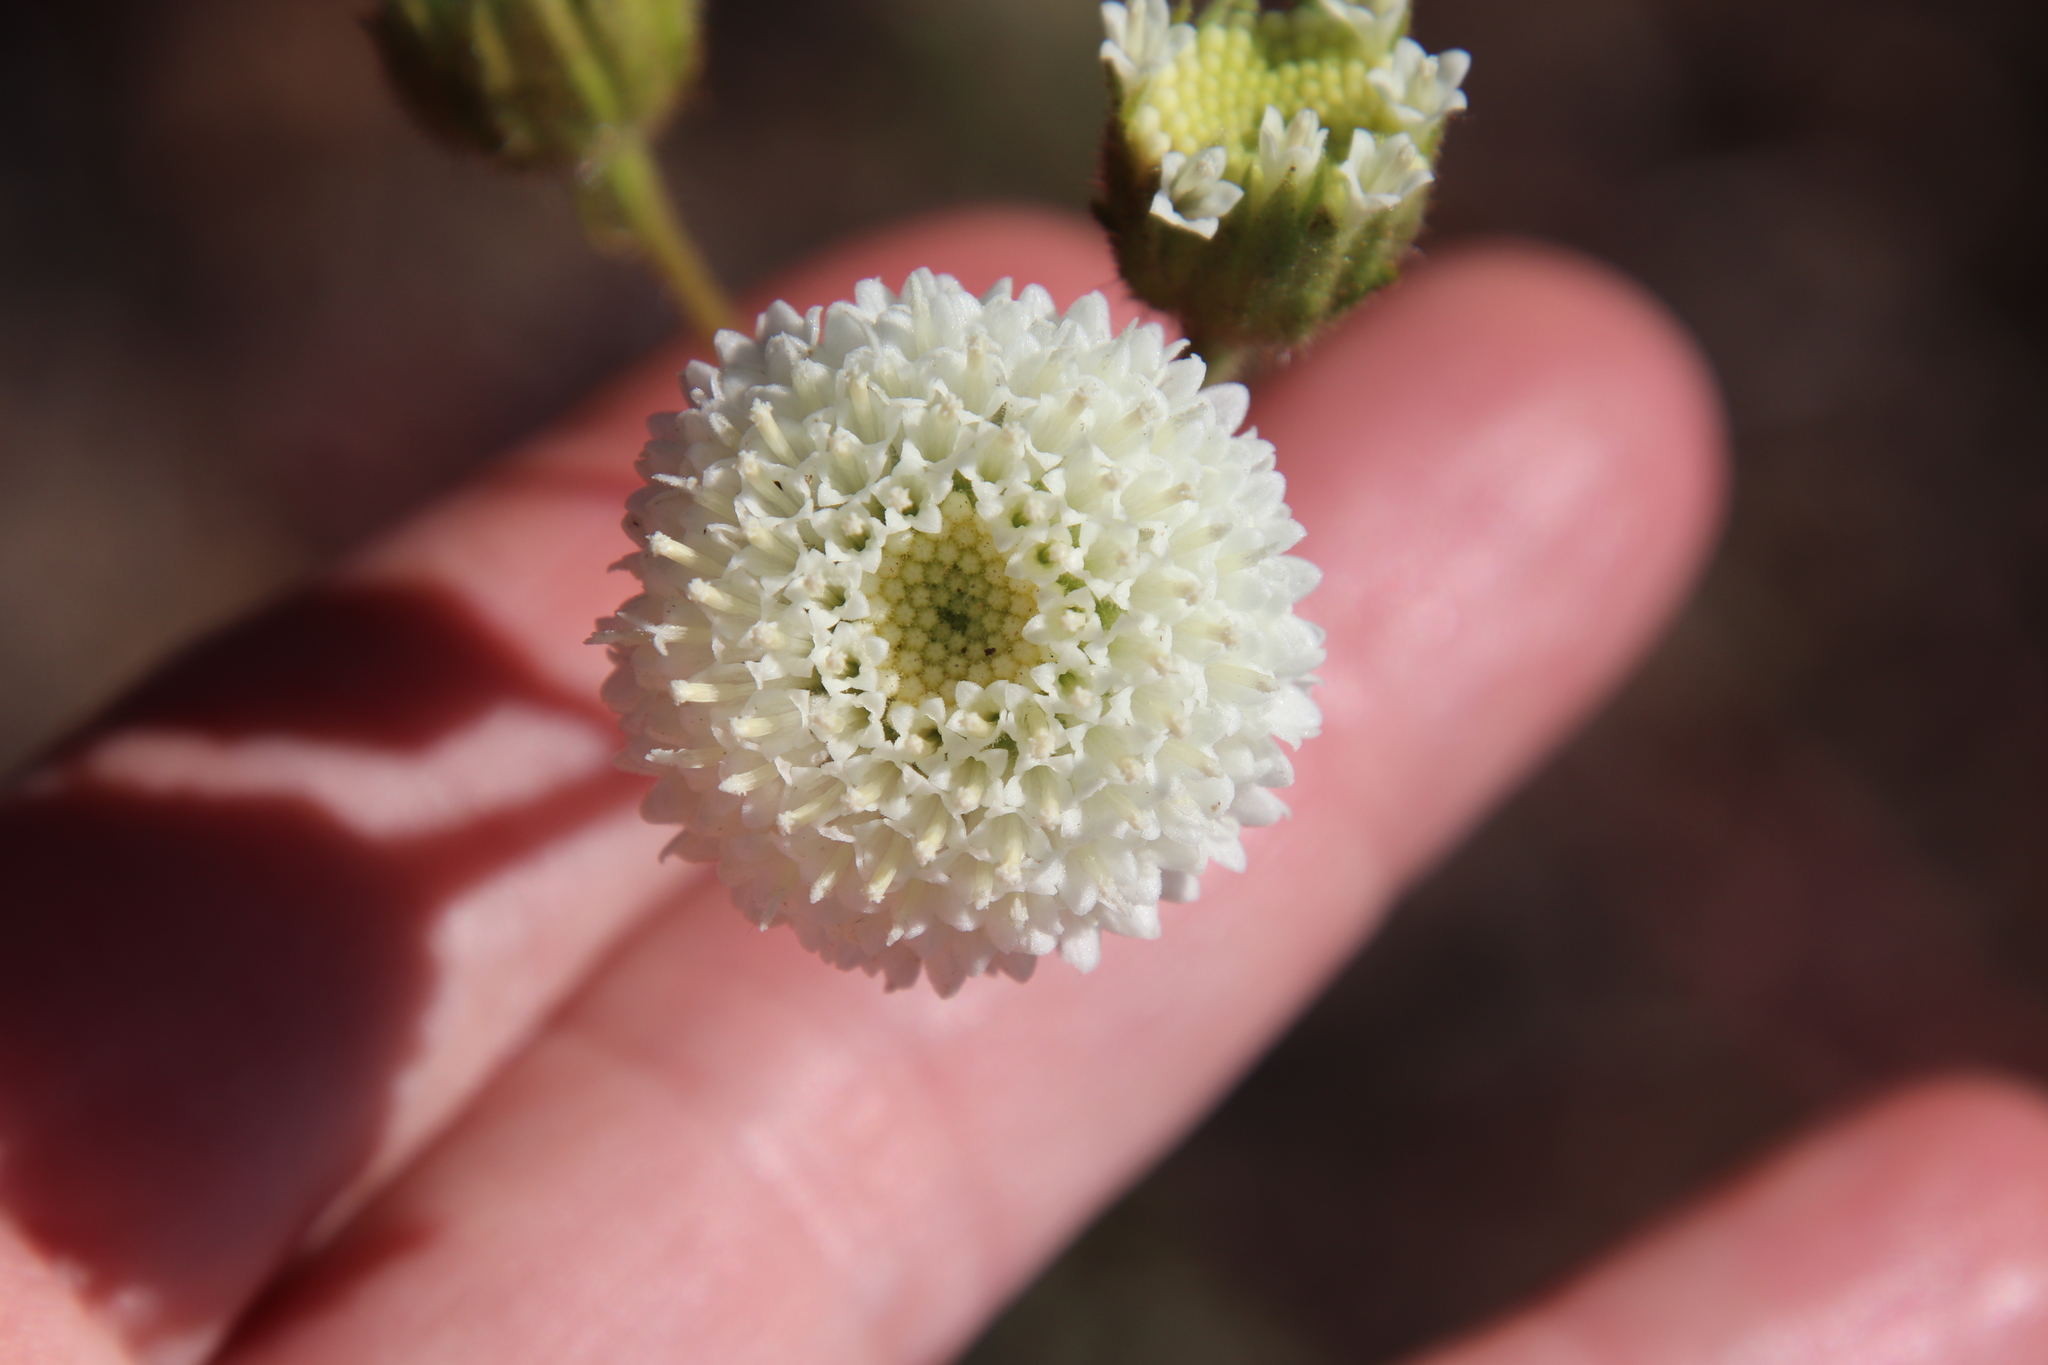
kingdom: Plantae
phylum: Tracheophyta
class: Magnoliopsida
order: Asterales
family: Asteraceae
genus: Chaenactis
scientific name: Chaenactis artemisiifolia
